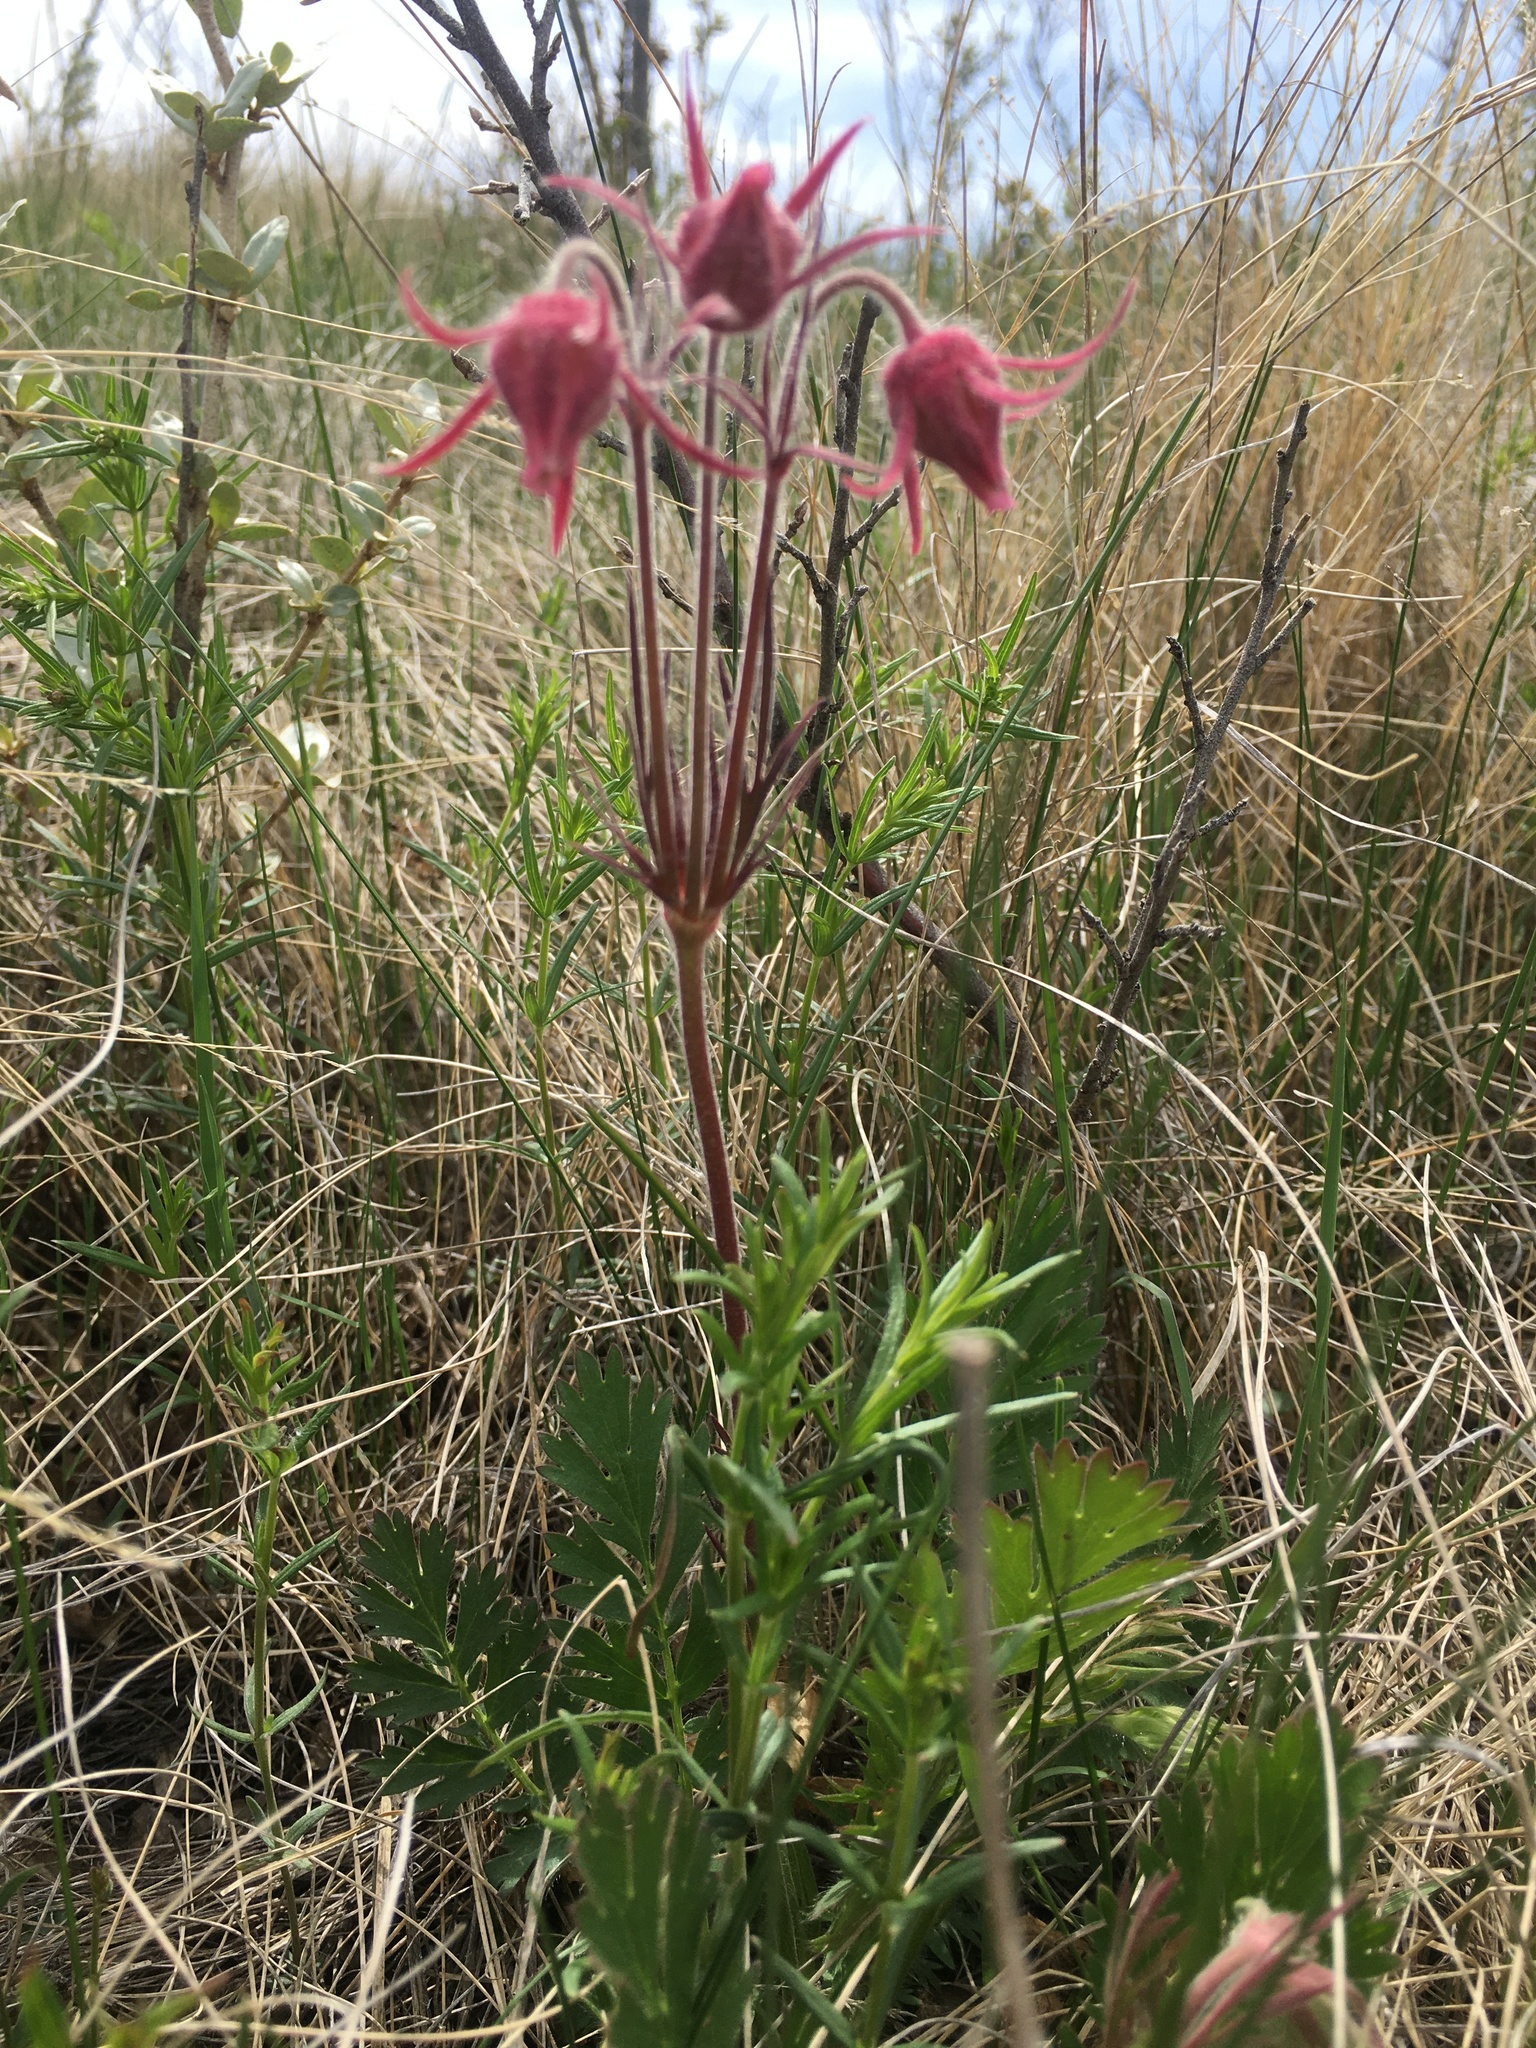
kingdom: Plantae
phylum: Tracheophyta
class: Magnoliopsida
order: Rosales
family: Rosaceae
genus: Geum
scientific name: Geum triflorum
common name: Old man's whiskers
